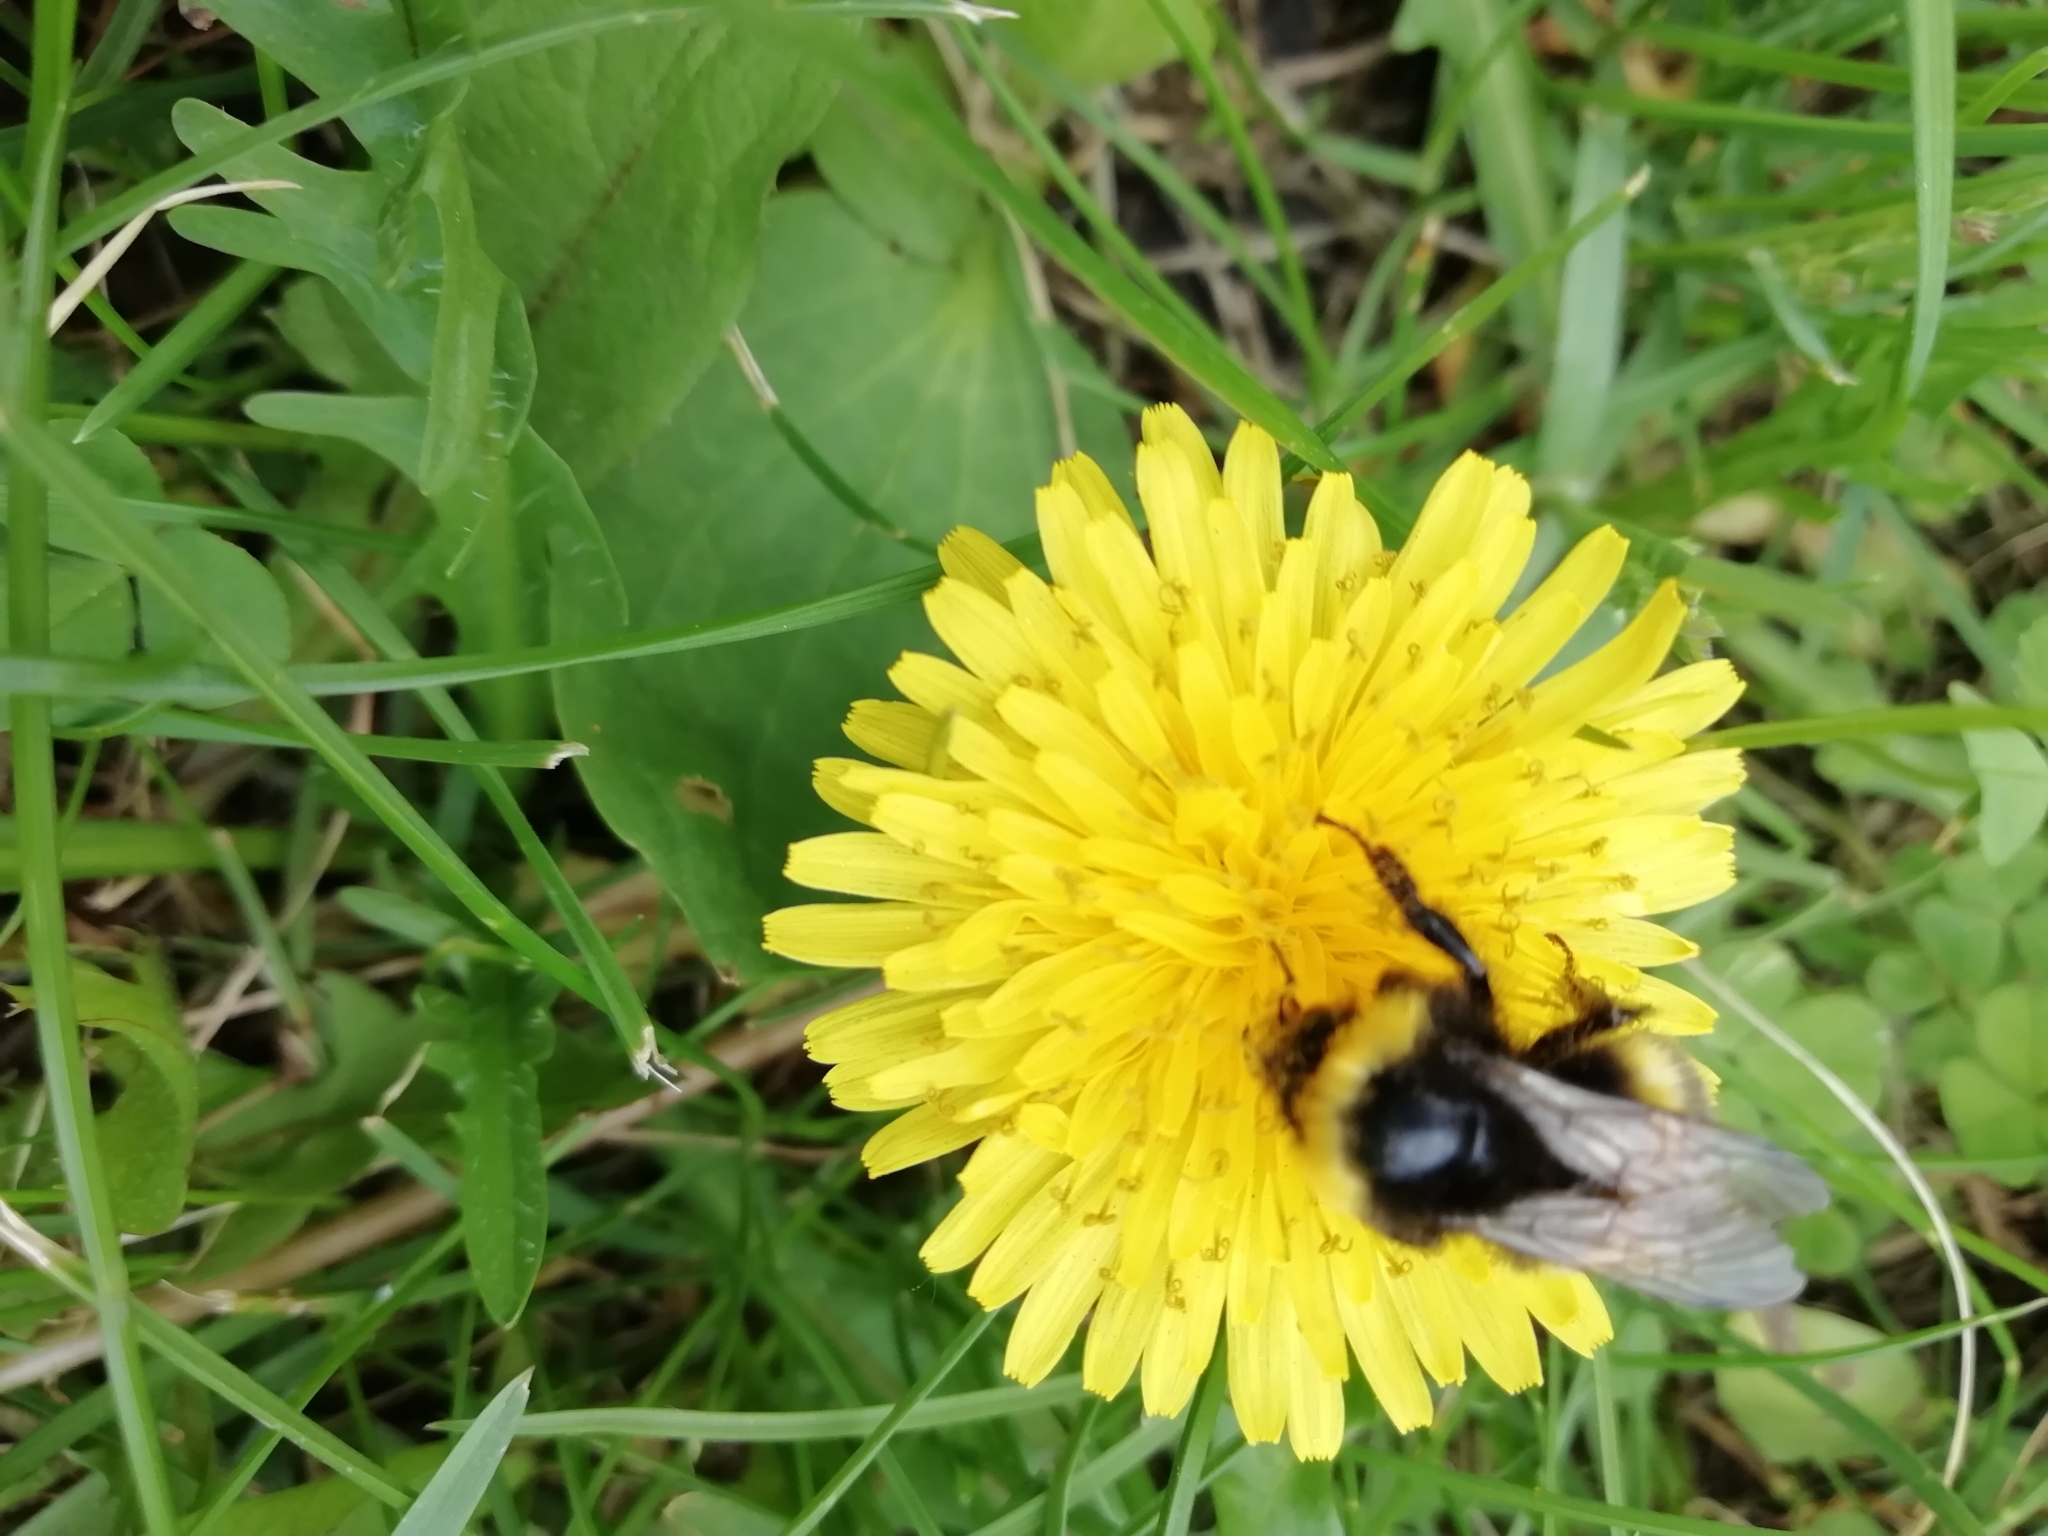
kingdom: Animalia
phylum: Arthropoda
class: Insecta
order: Hymenoptera
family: Apidae
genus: Bombus
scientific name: Bombus lucorum
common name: White-tailed bumblebee
